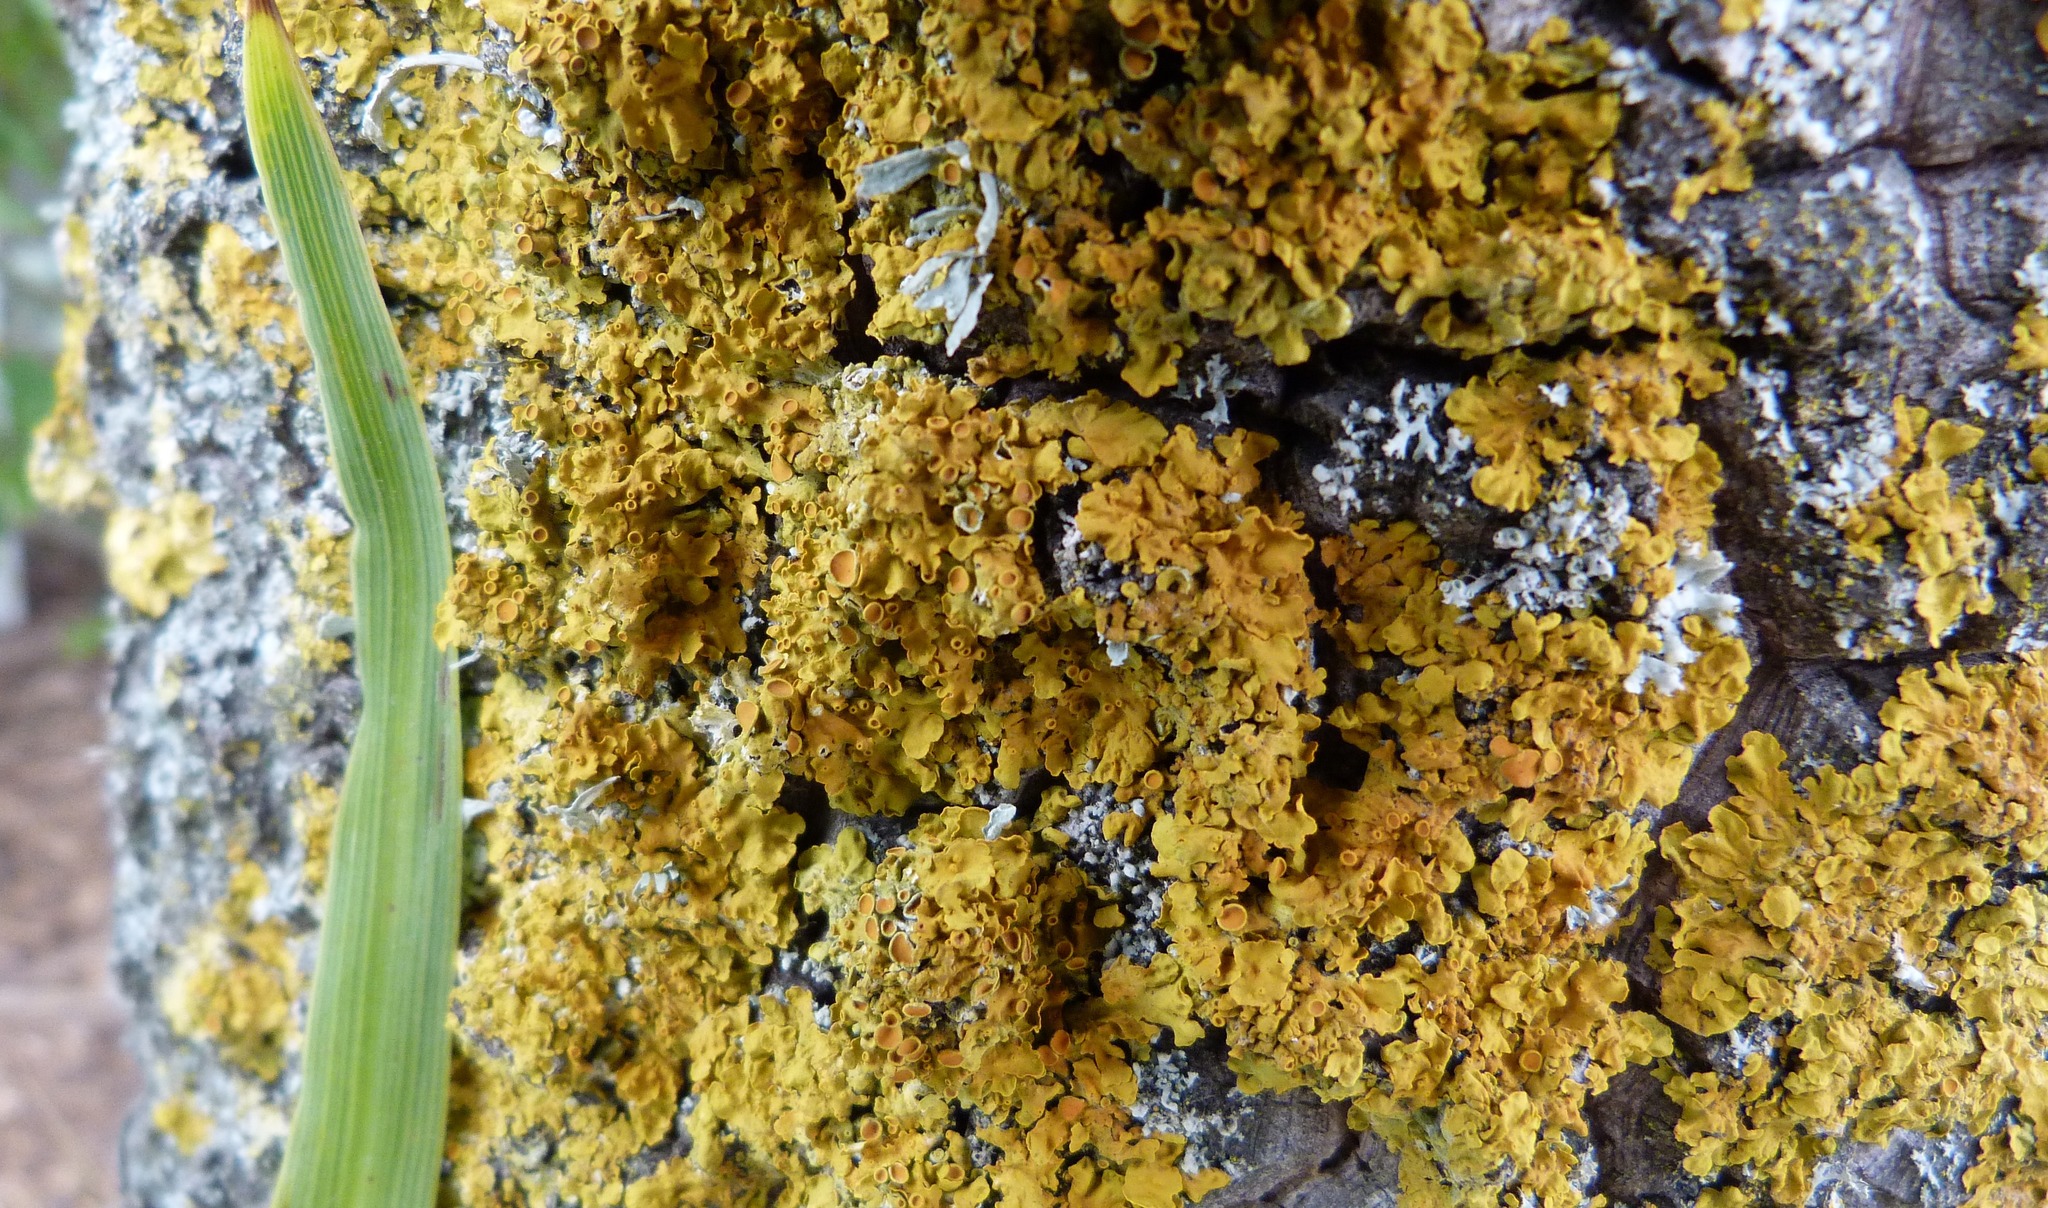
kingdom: Fungi
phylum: Ascomycota
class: Lecanoromycetes
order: Teloschistales
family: Teloschistaceae
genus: Xanthoria
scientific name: Xanthoria parietina
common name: Common orange lichen
